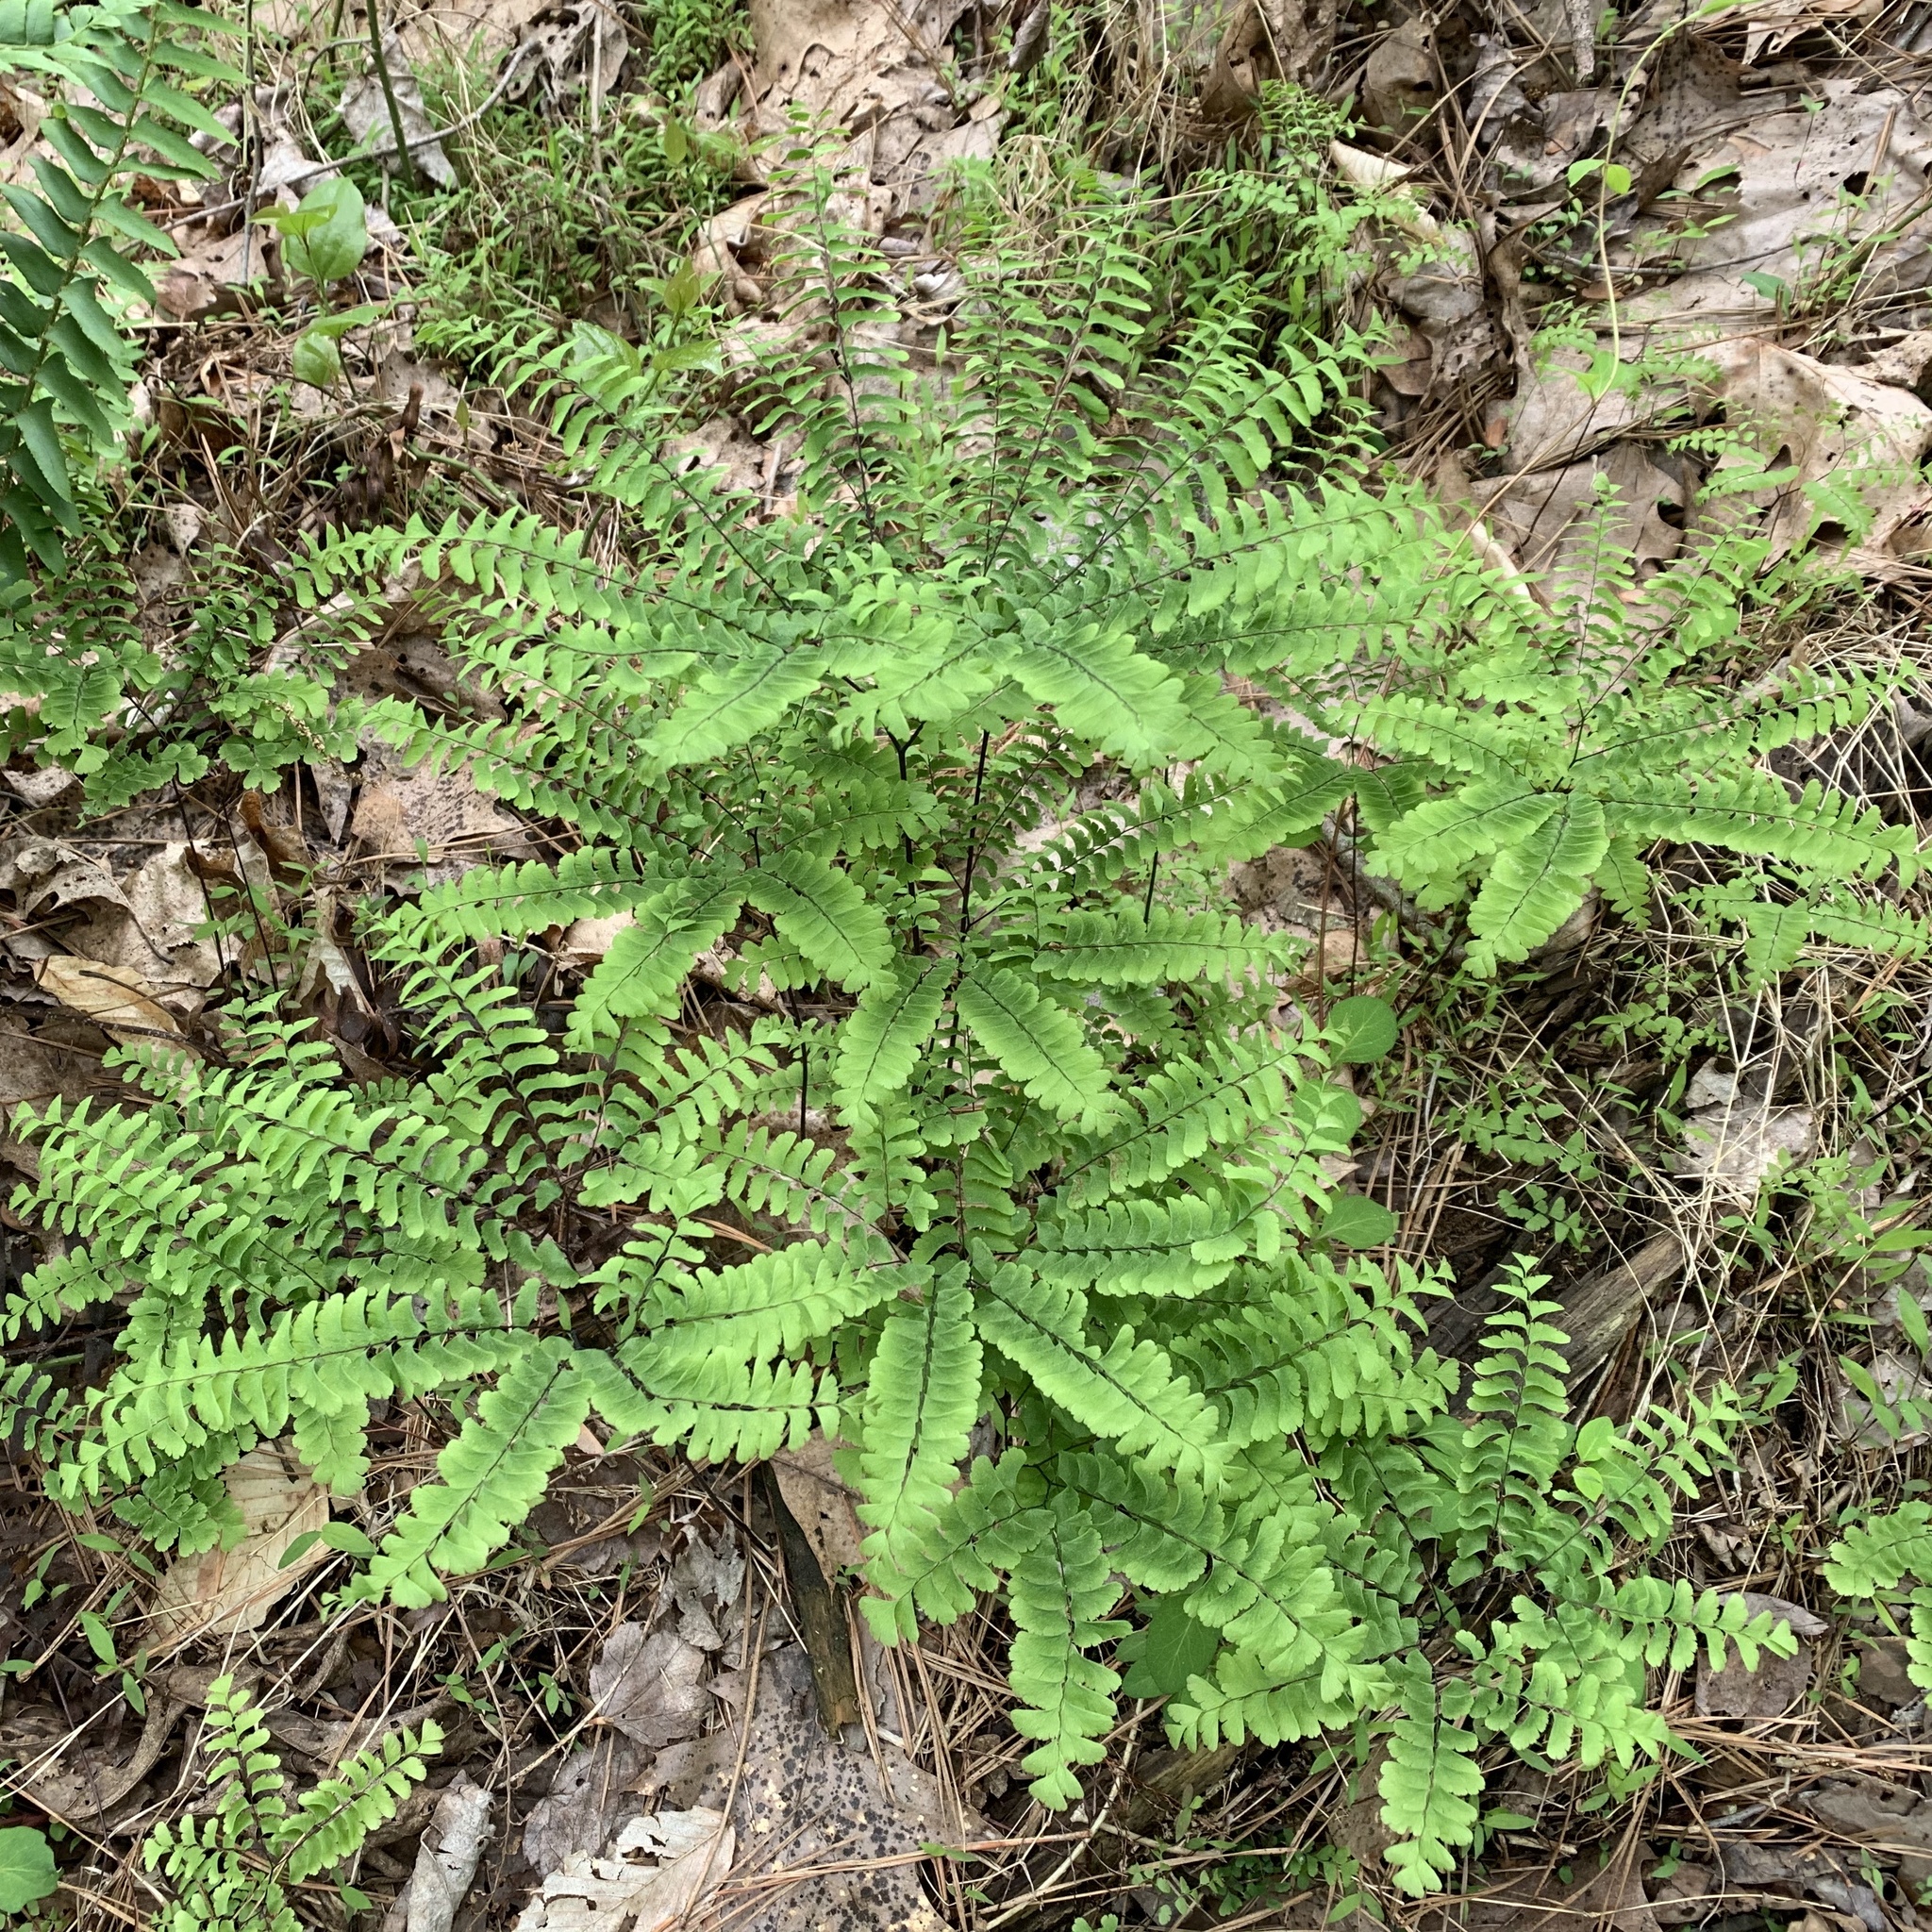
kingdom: Plantae
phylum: Tracheophyta
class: Polypodiopsida
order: Polypodiales
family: Pteridaceae
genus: Adiantum
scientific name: Adiantum pedatum
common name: Five-finger fern
